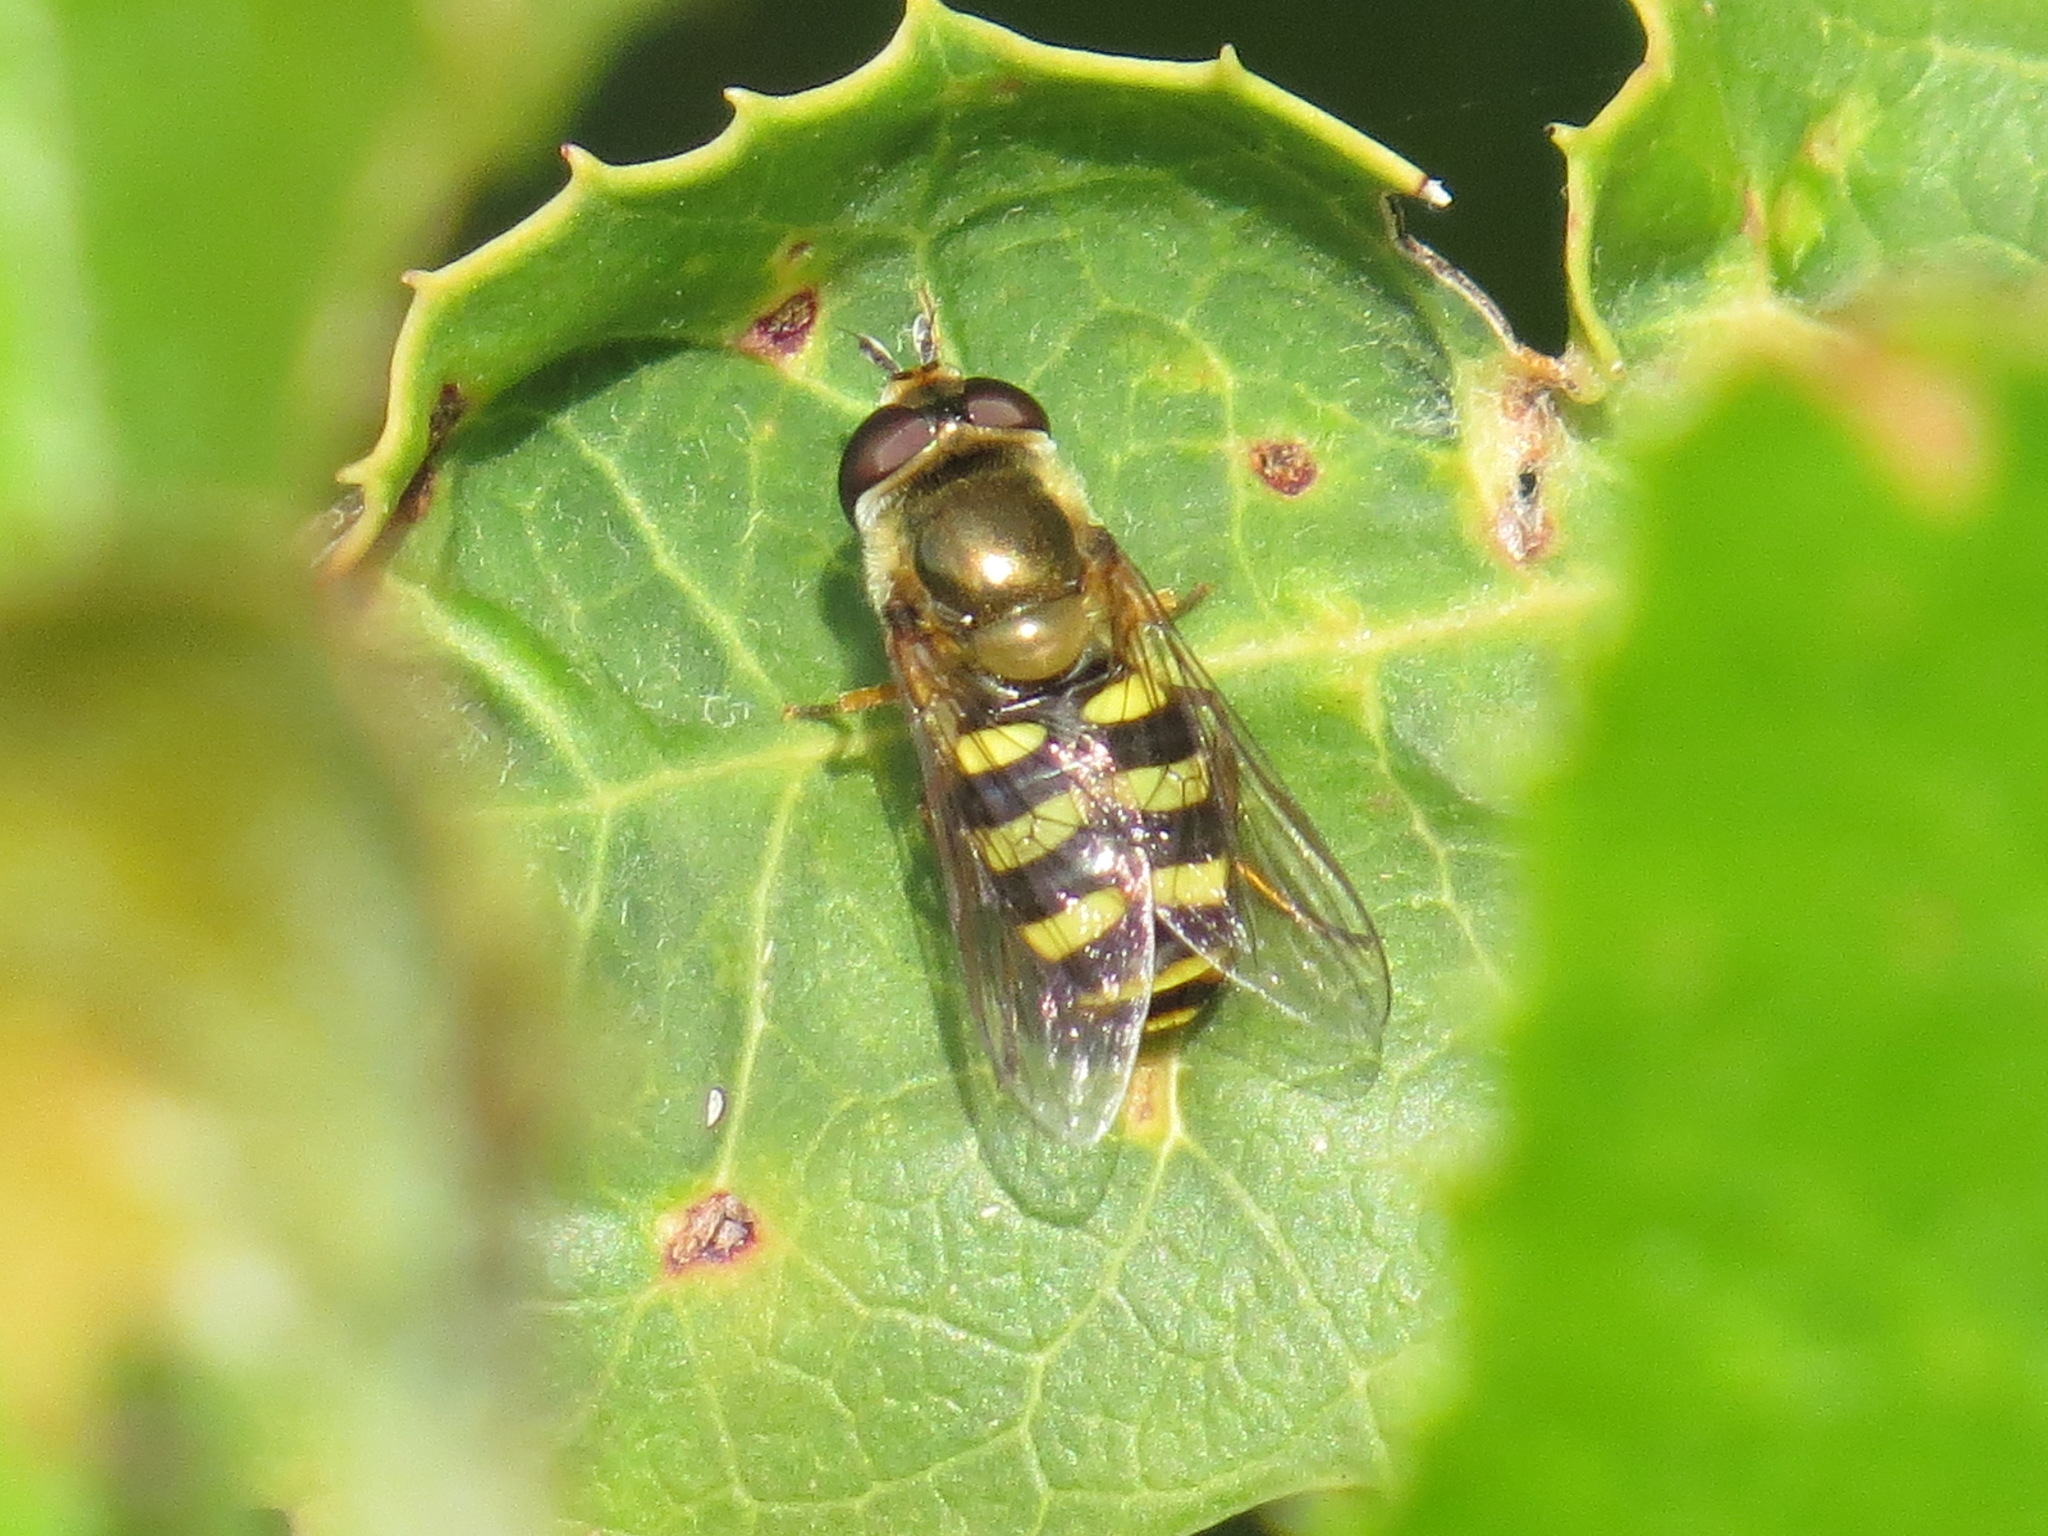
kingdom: Animalia
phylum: Arthropoda
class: Insecta
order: Diptera
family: Syrphidae
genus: Eupeodes
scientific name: Eupeodes fumipennis
